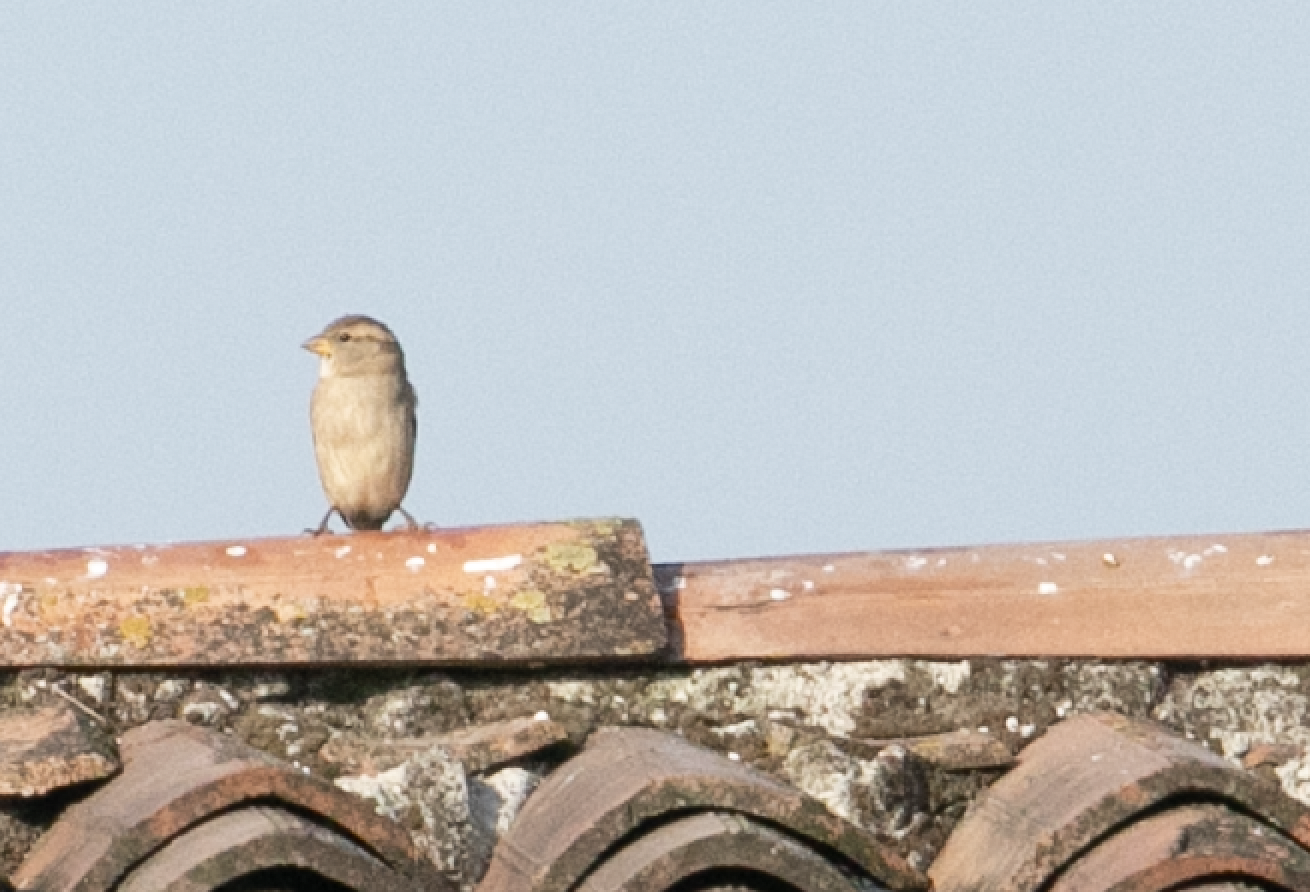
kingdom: Animalia
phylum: Chordata
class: Aves
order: Passeriformes
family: Passeridae
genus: Passer
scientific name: Passer italiae
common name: Italian sparrow
